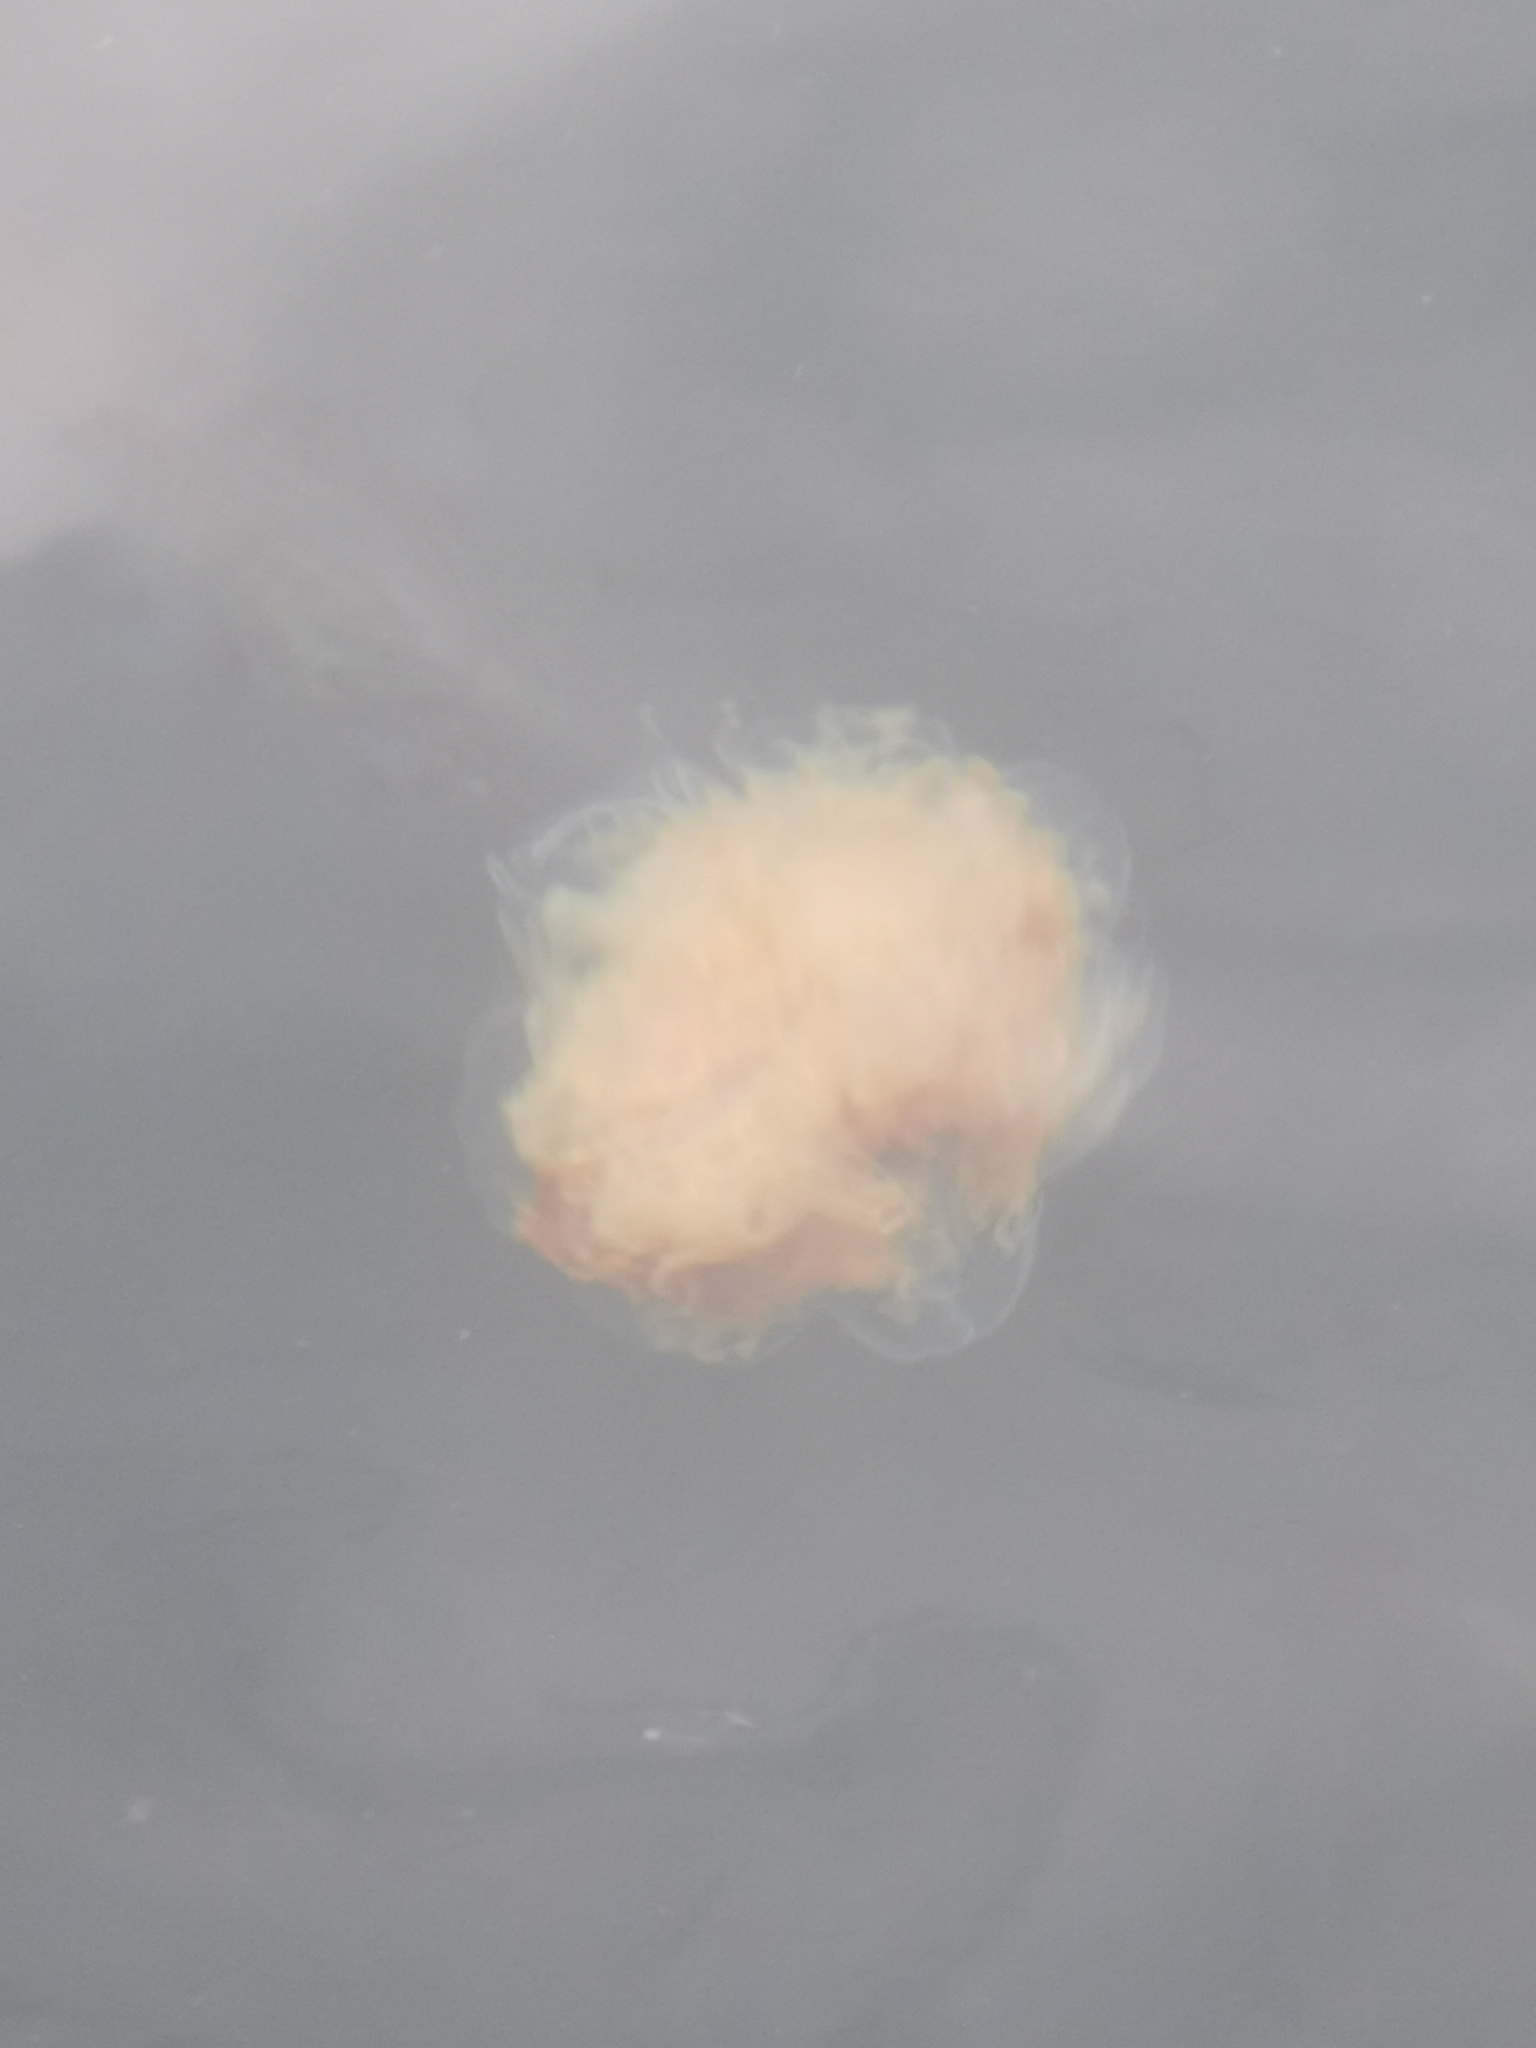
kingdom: Animalia
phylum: Cnidaria
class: Scyphozoa
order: Semaeostomeae
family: Cyaneidae
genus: Cyanea
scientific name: Cyanea capillata
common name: Lion's mane jellyfish
